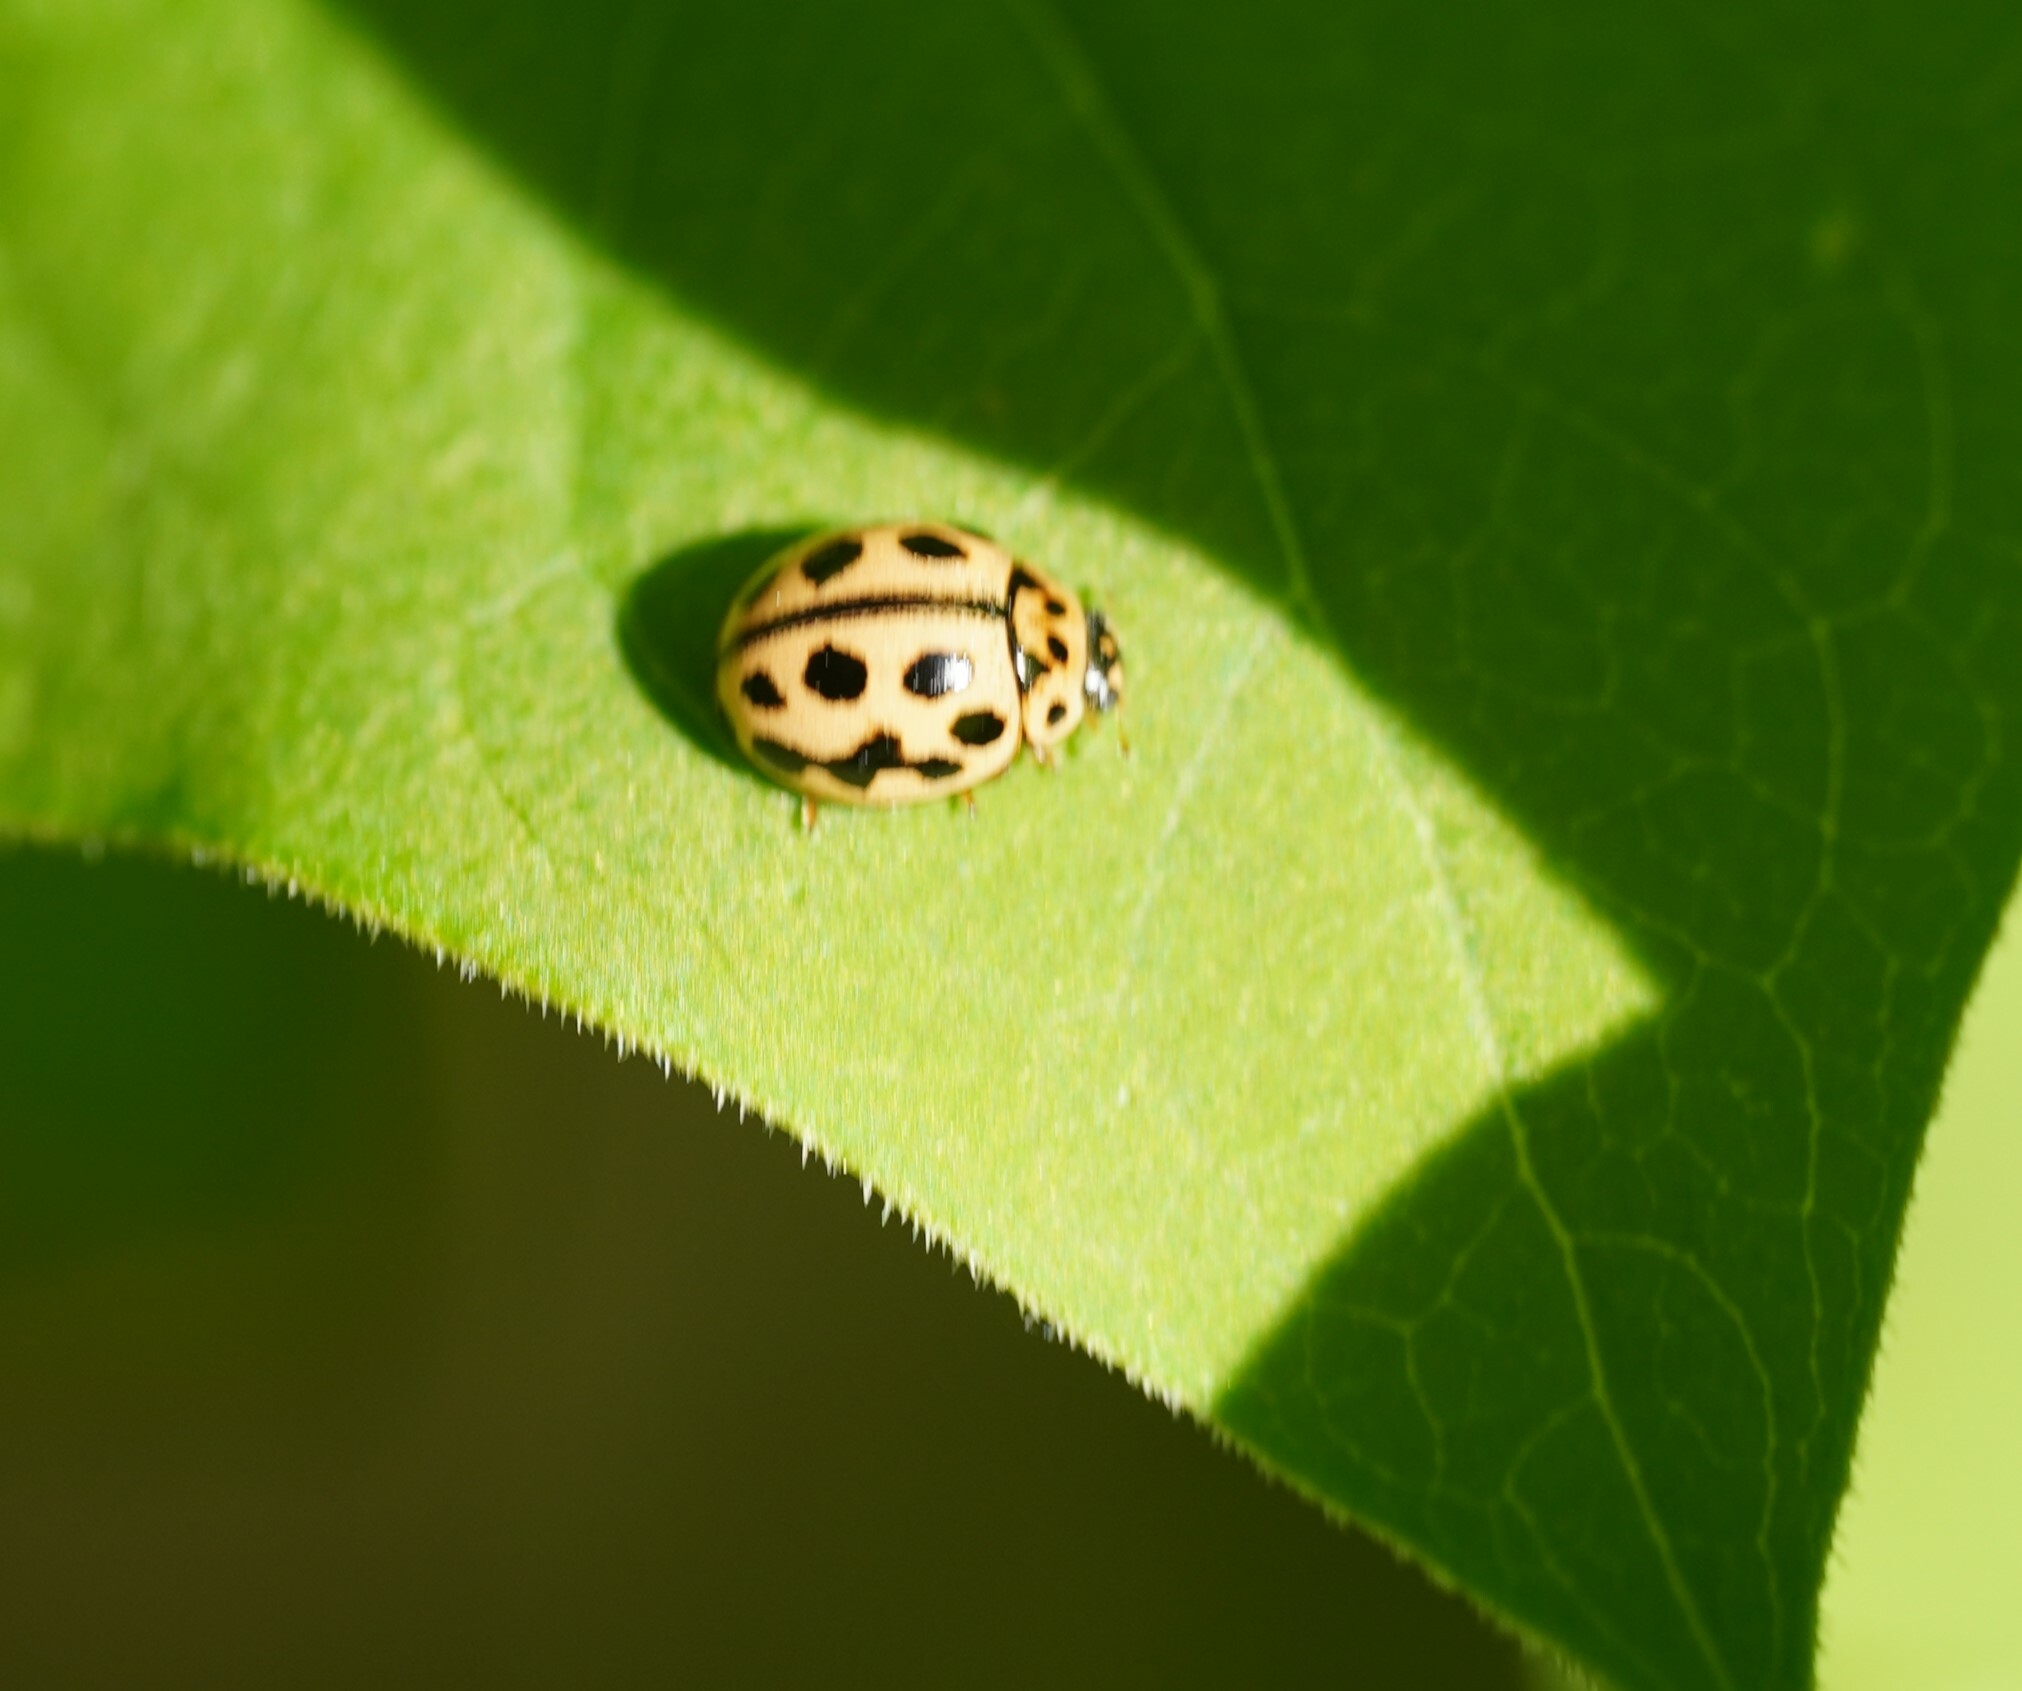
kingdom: Animalia
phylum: Arthropoda
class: Insecta
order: Coleoptera
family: Coccinellidae
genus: Tytthaspis
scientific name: Tytthaspis sedecimpunctata
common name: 16-spot ladybird
